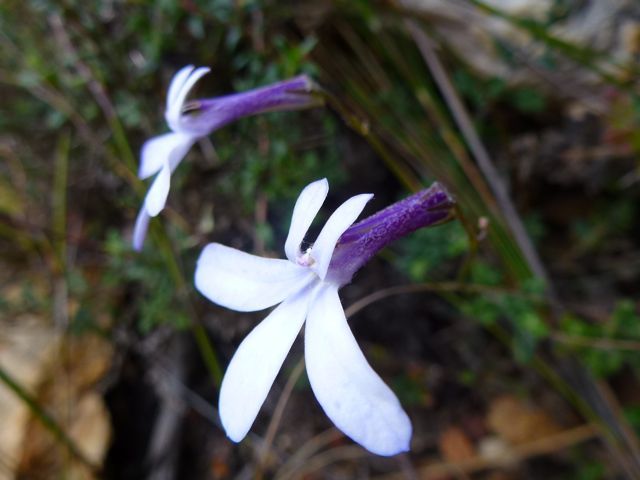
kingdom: Plantae
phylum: Tracheophyta
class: Magnoliopsida
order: Asterales
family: Campanulaceae
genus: Lobelia
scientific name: Lobelia dichroma
